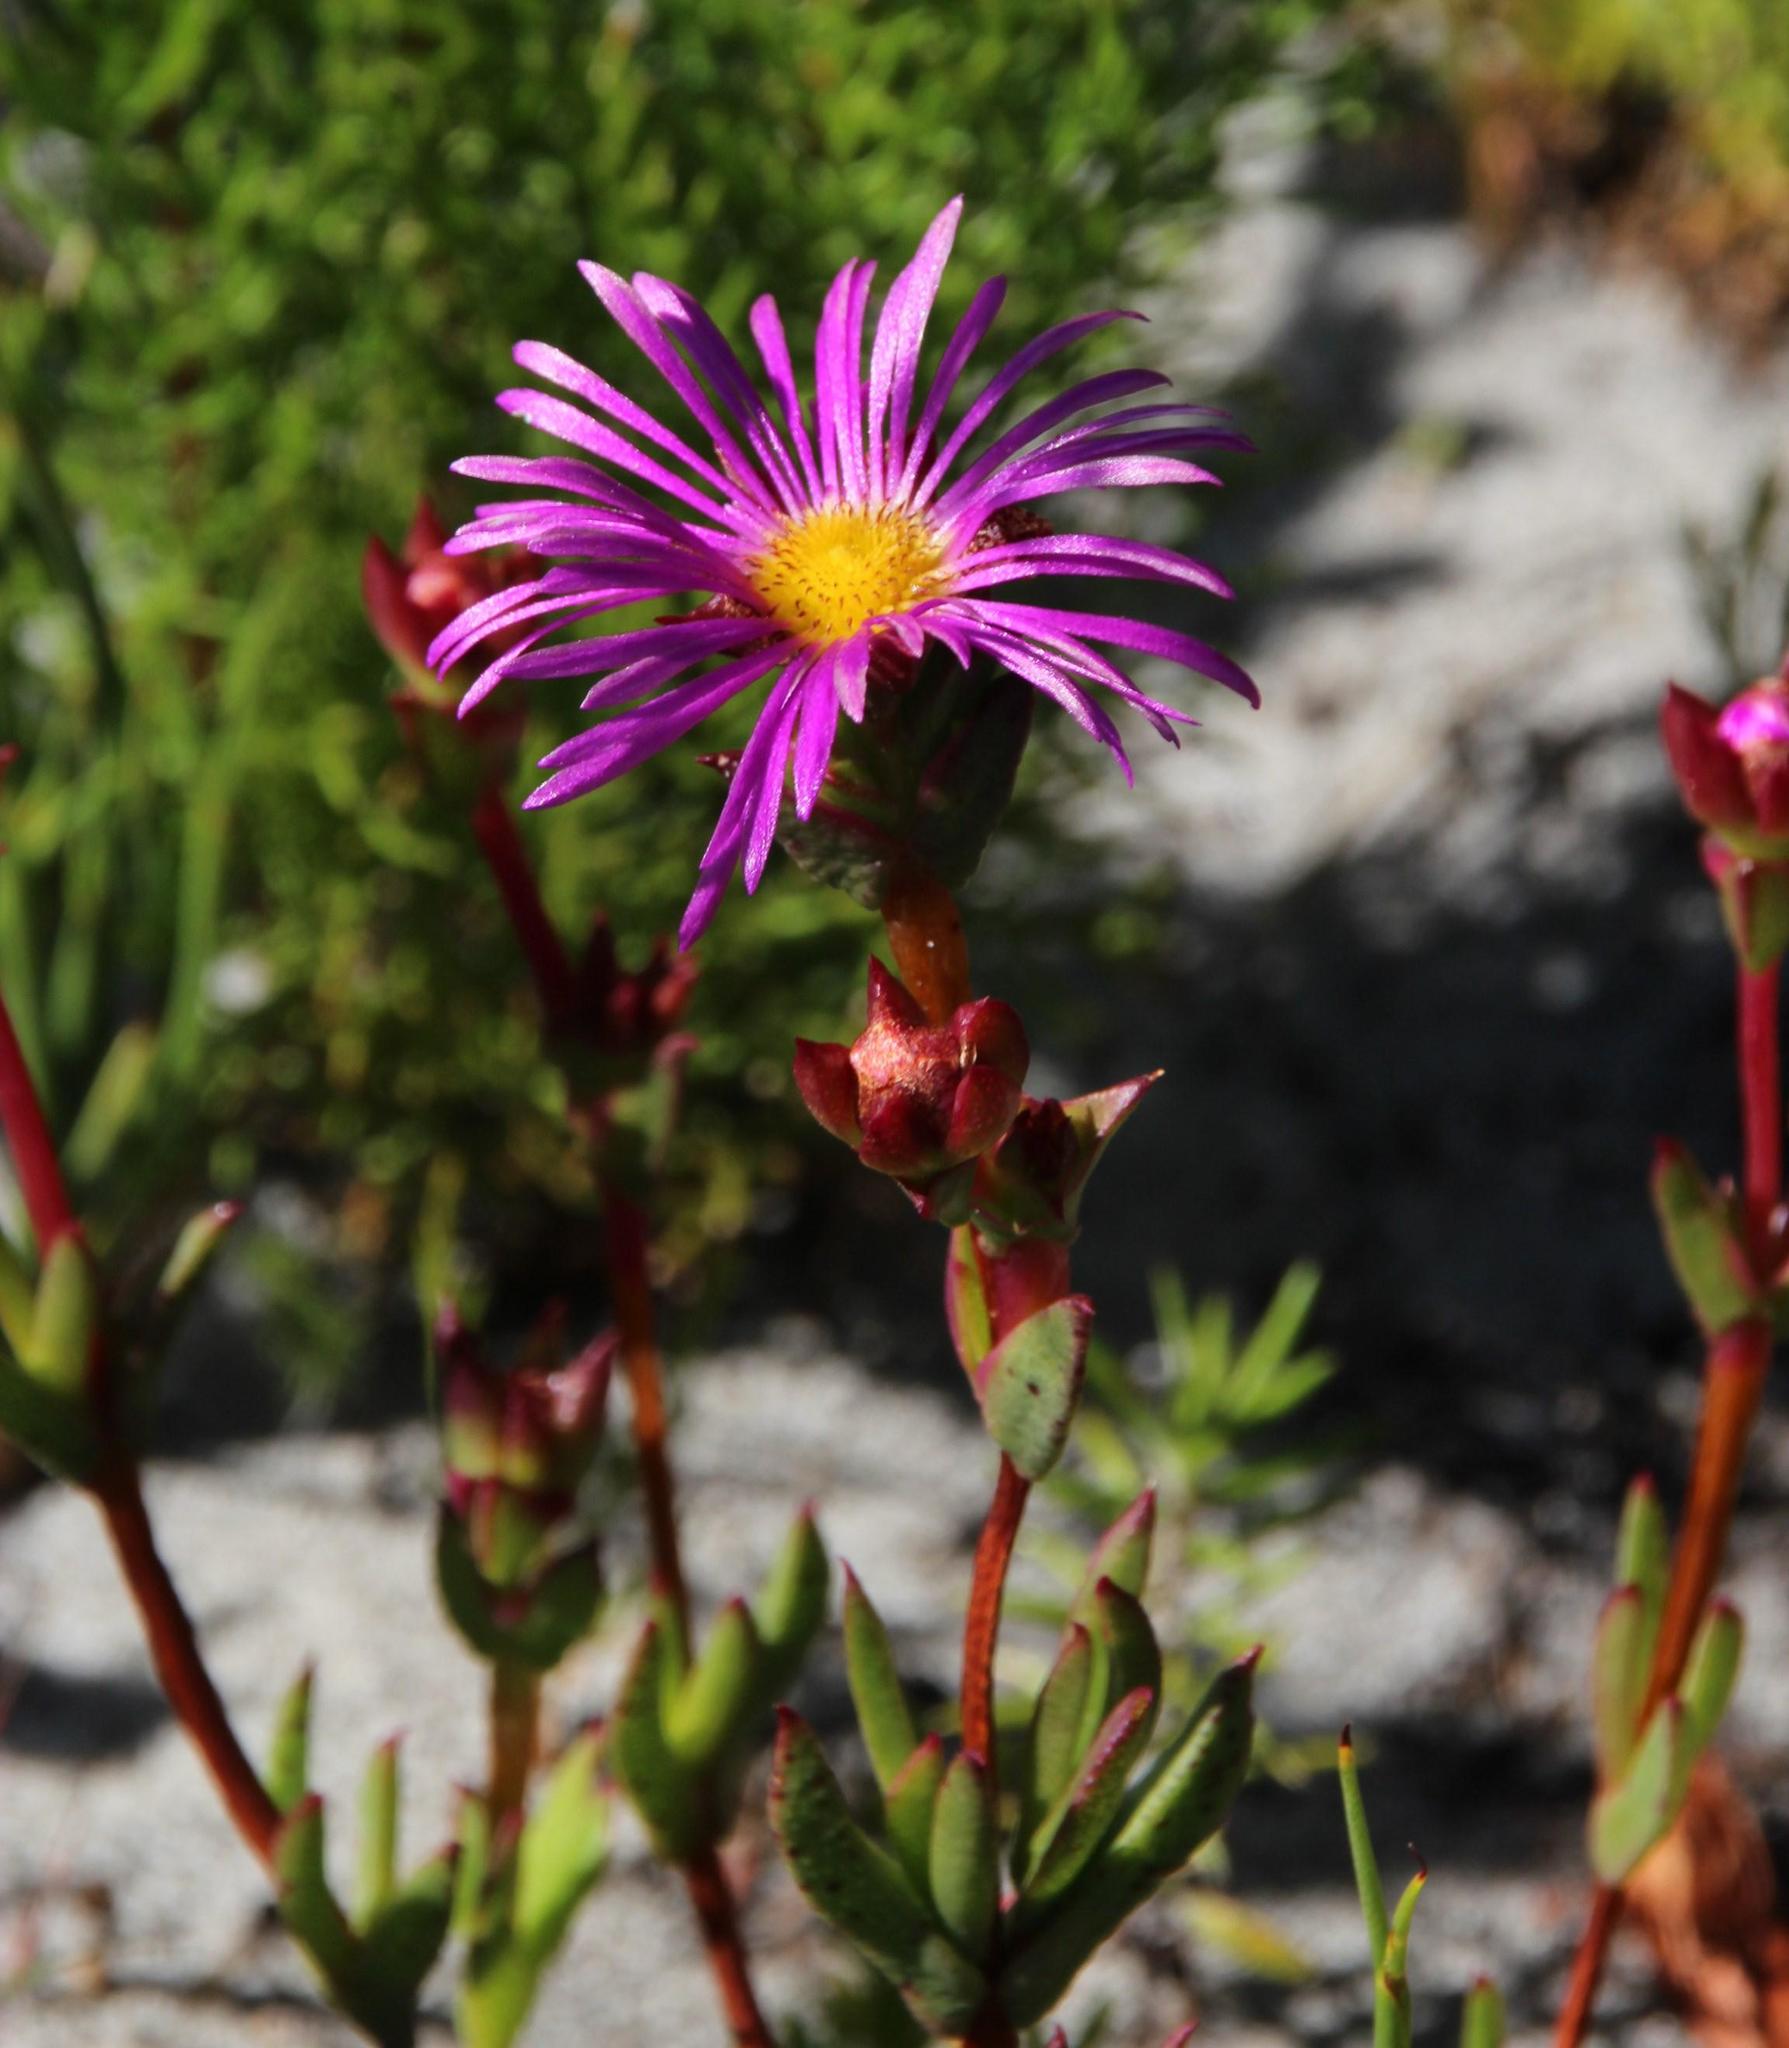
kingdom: Plantae
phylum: Tracheophyta
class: Magnoliopsida
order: Caryophyllales
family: Aizoaceae
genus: Erepsia
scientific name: Erepsia anceps
